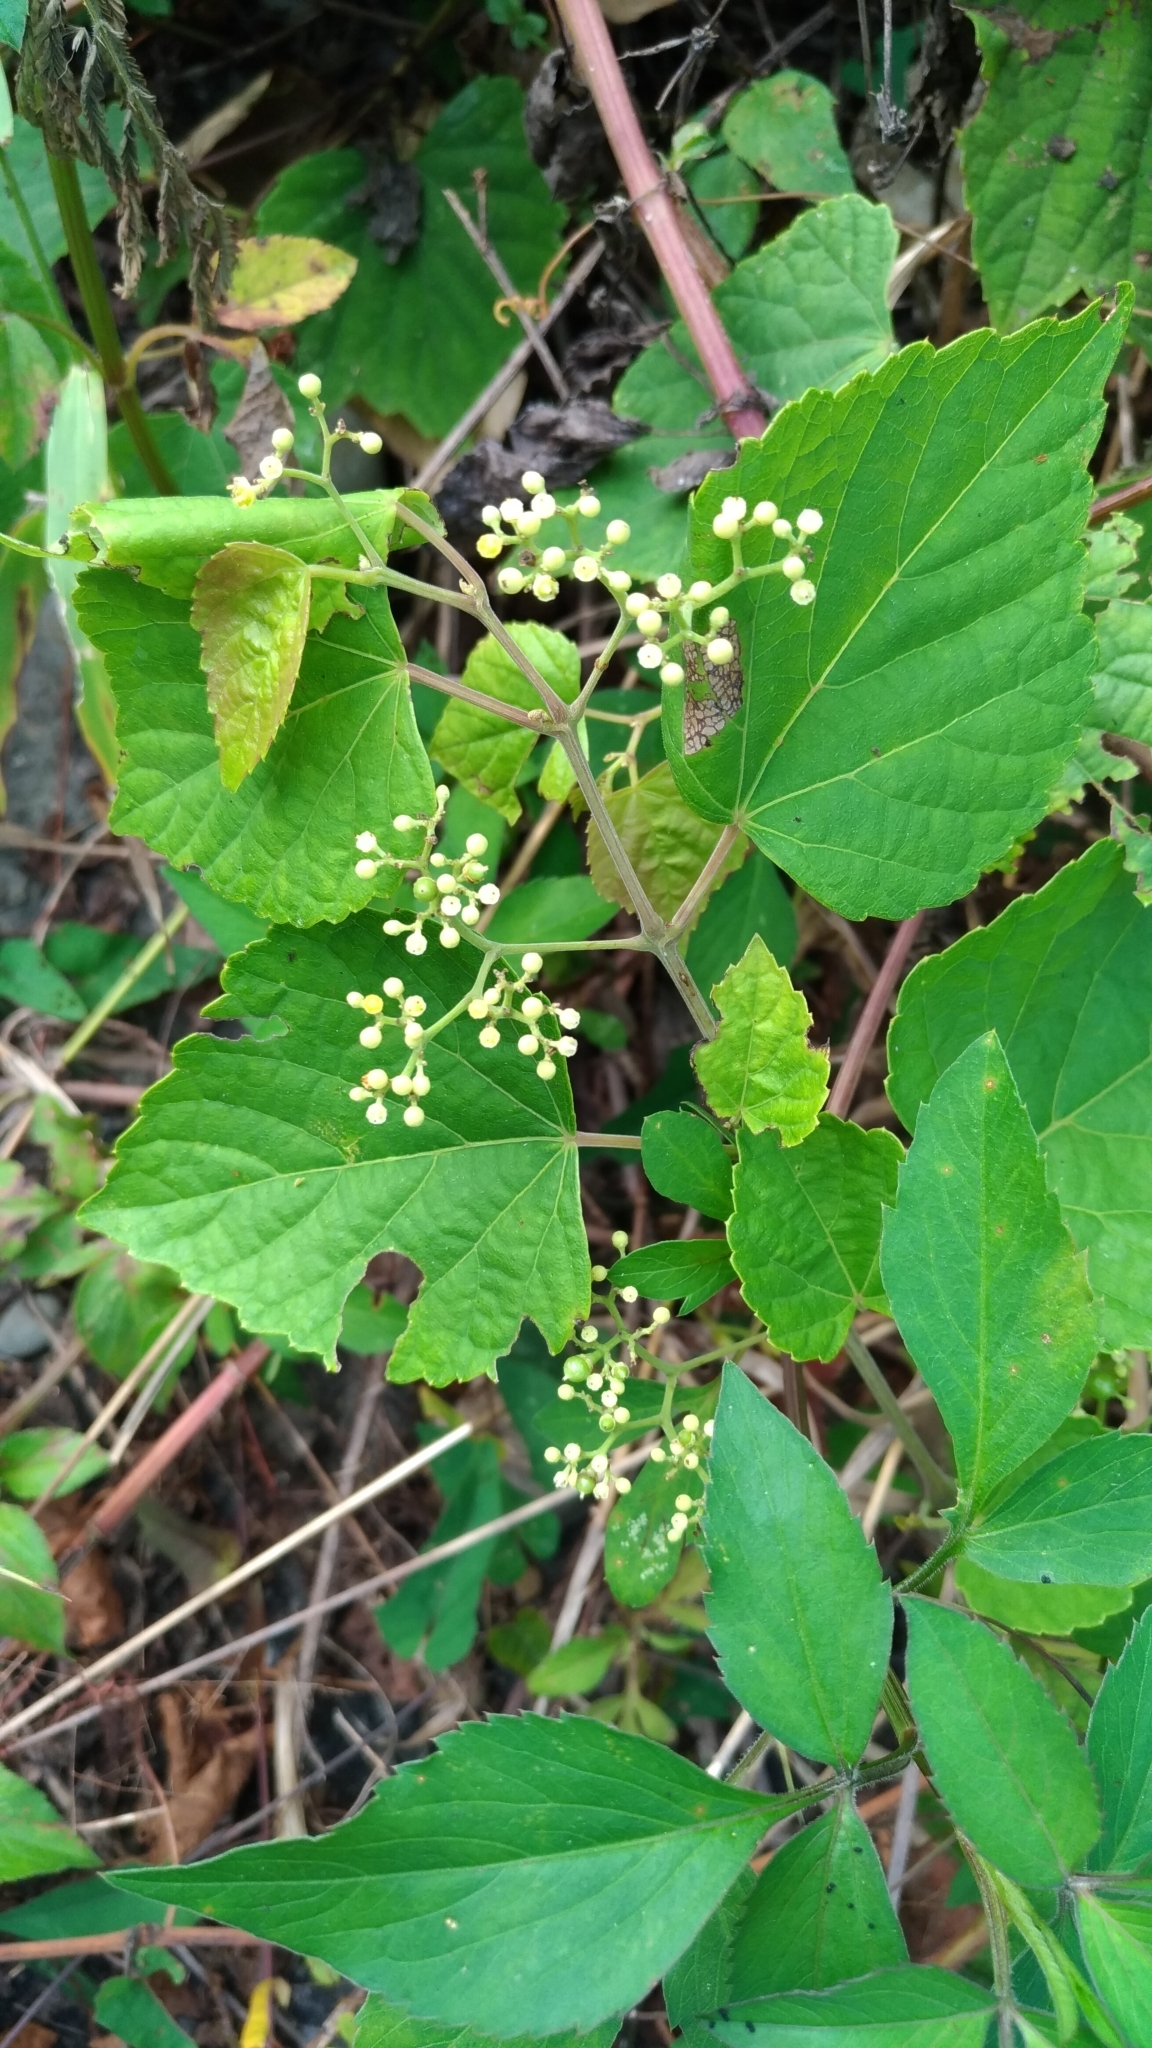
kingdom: Plantae
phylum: Tracheophyta
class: Magnoliopsida
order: Vitales
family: Vitaceae
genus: Ampelopsis
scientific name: Ampelopsis glandulosa
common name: Amur peppervine
